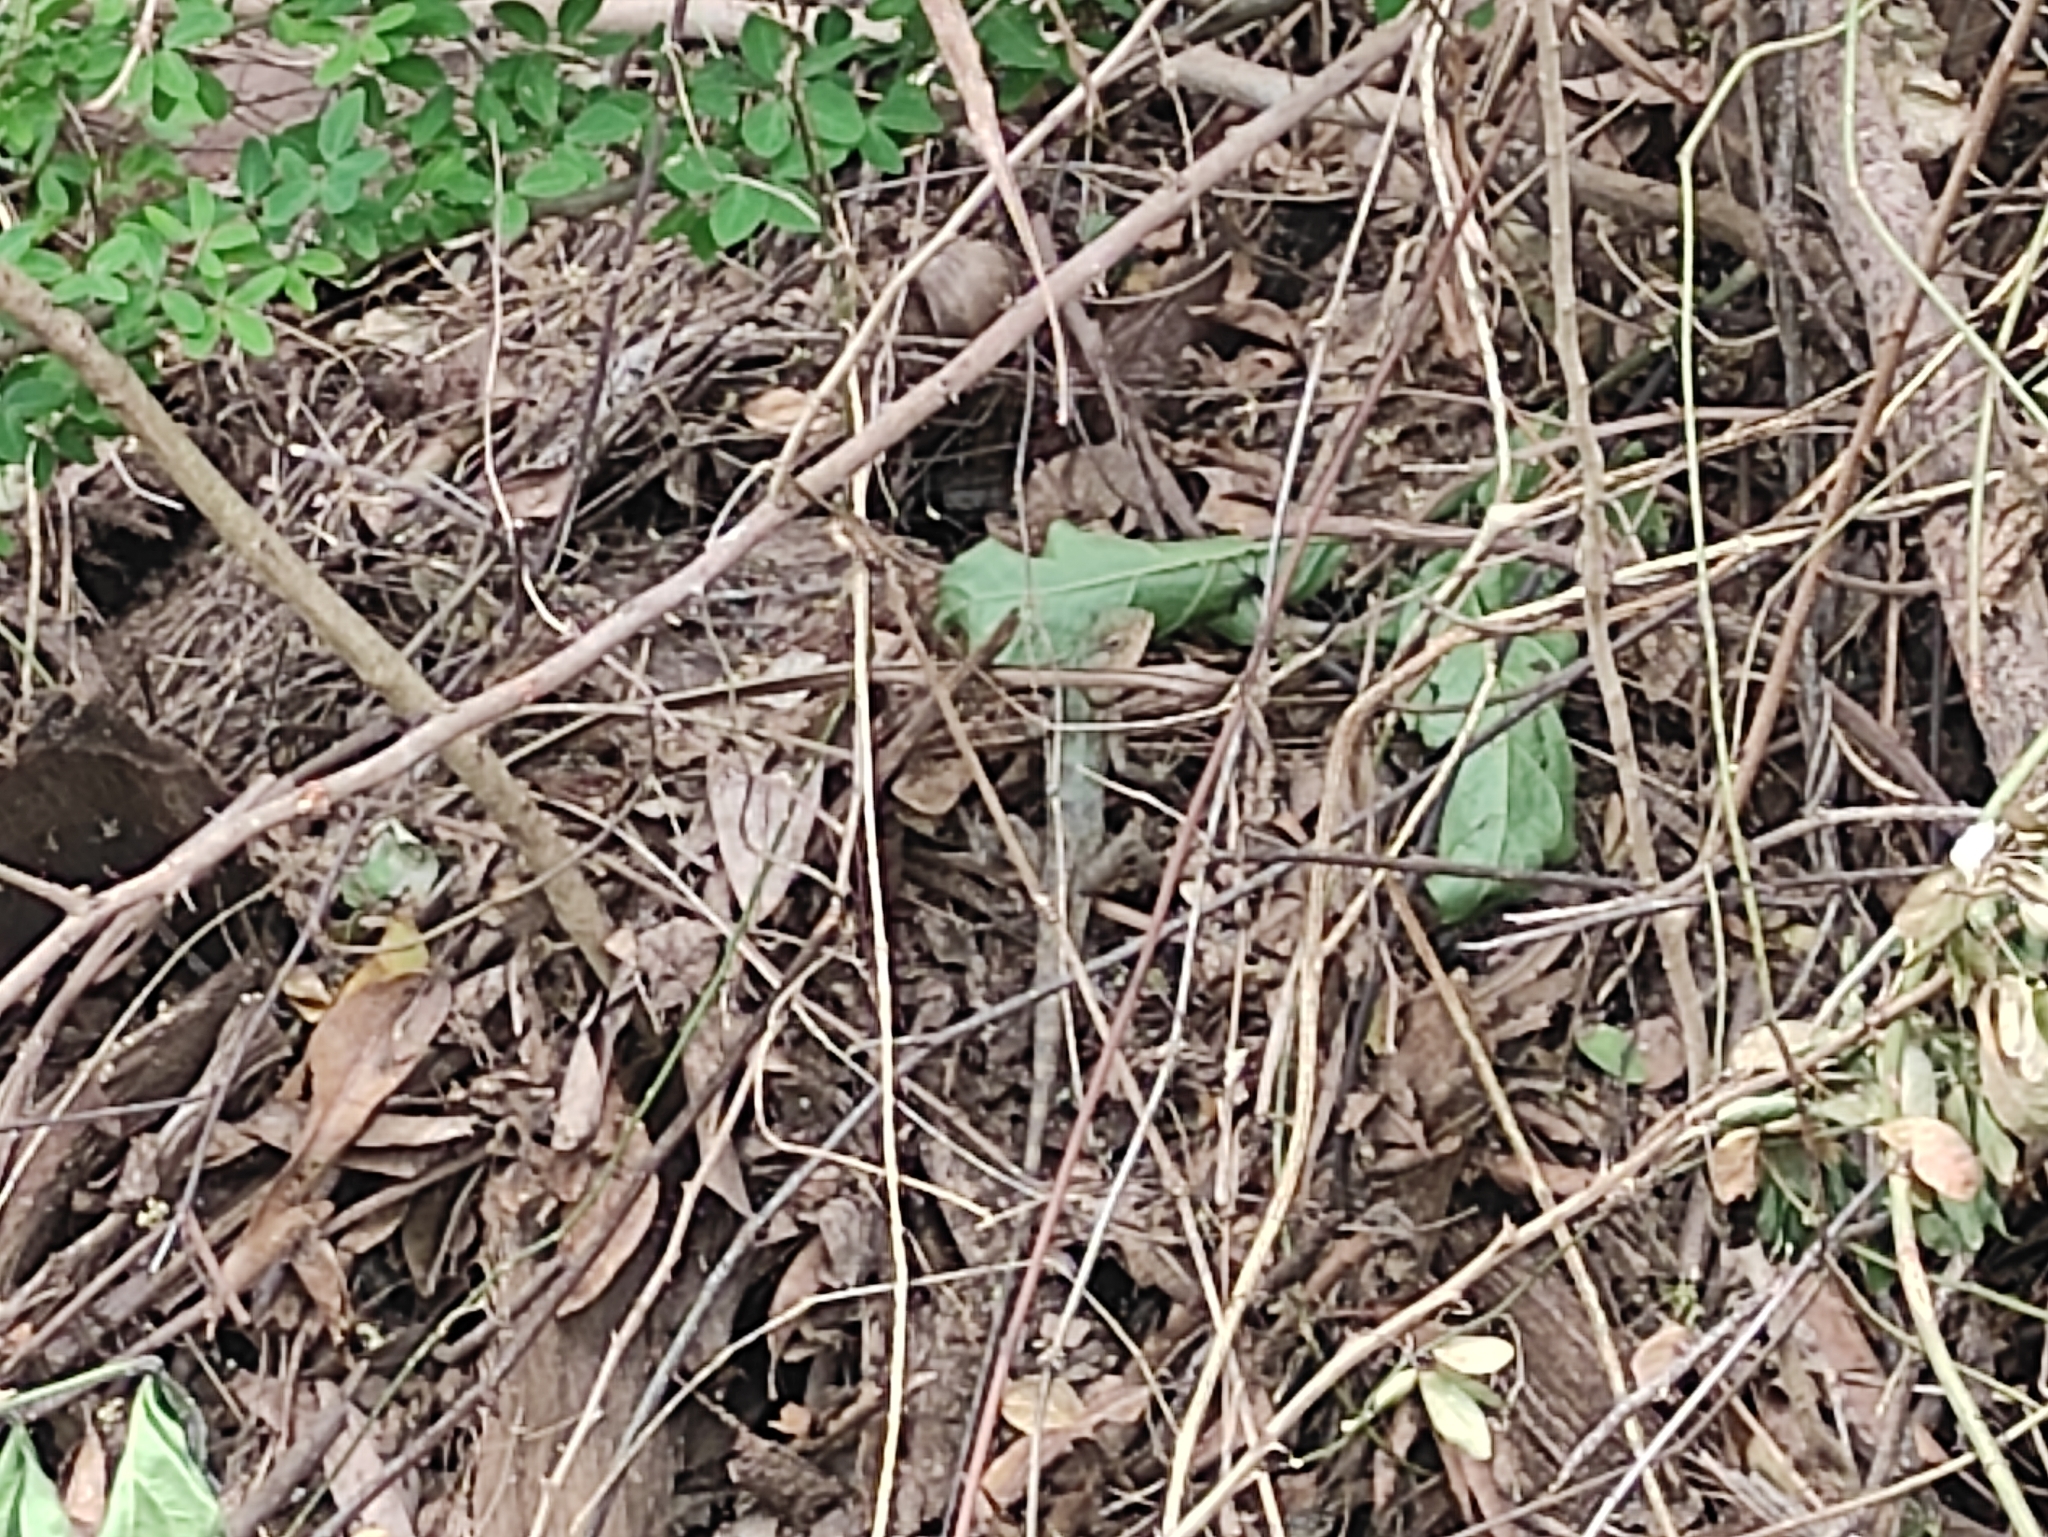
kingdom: Animalia
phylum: Chordata
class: Squamata
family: Agamidae
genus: Calotes
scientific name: Calotes versicolor
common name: Oriental garden lizard
